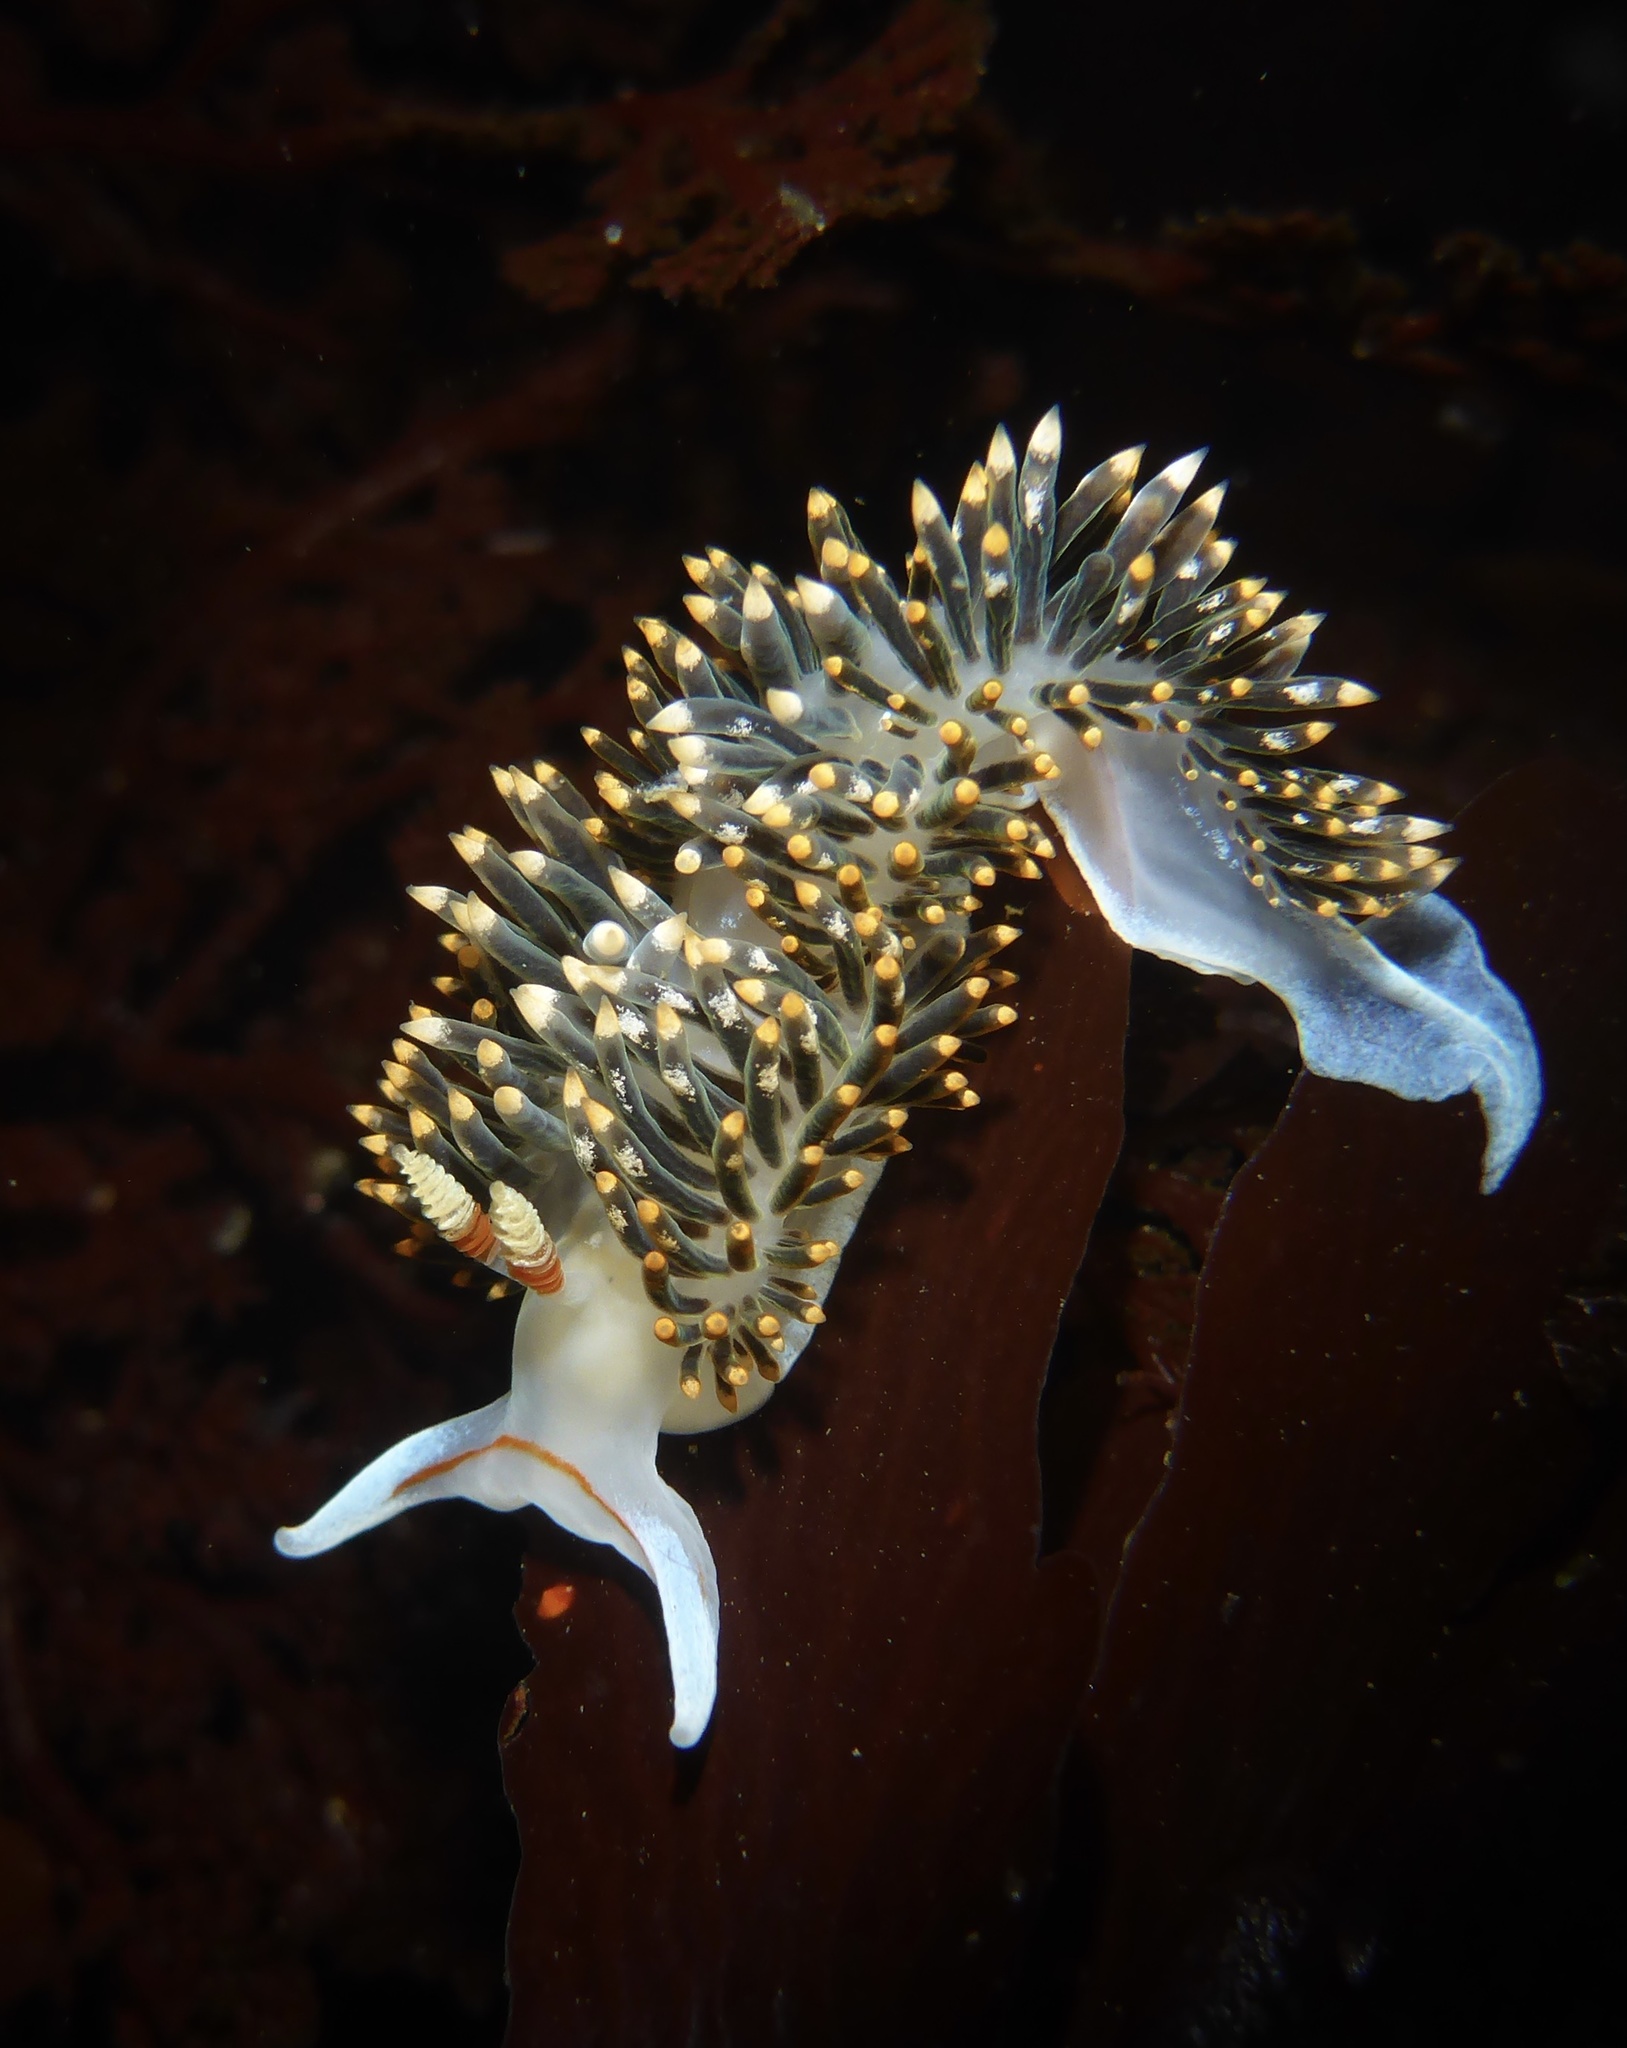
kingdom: Animalia
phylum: Mollusca
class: Gastropoda
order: Nudibranchia
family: Facelinidae
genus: Phidiana
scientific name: Phidiana hiltoni
